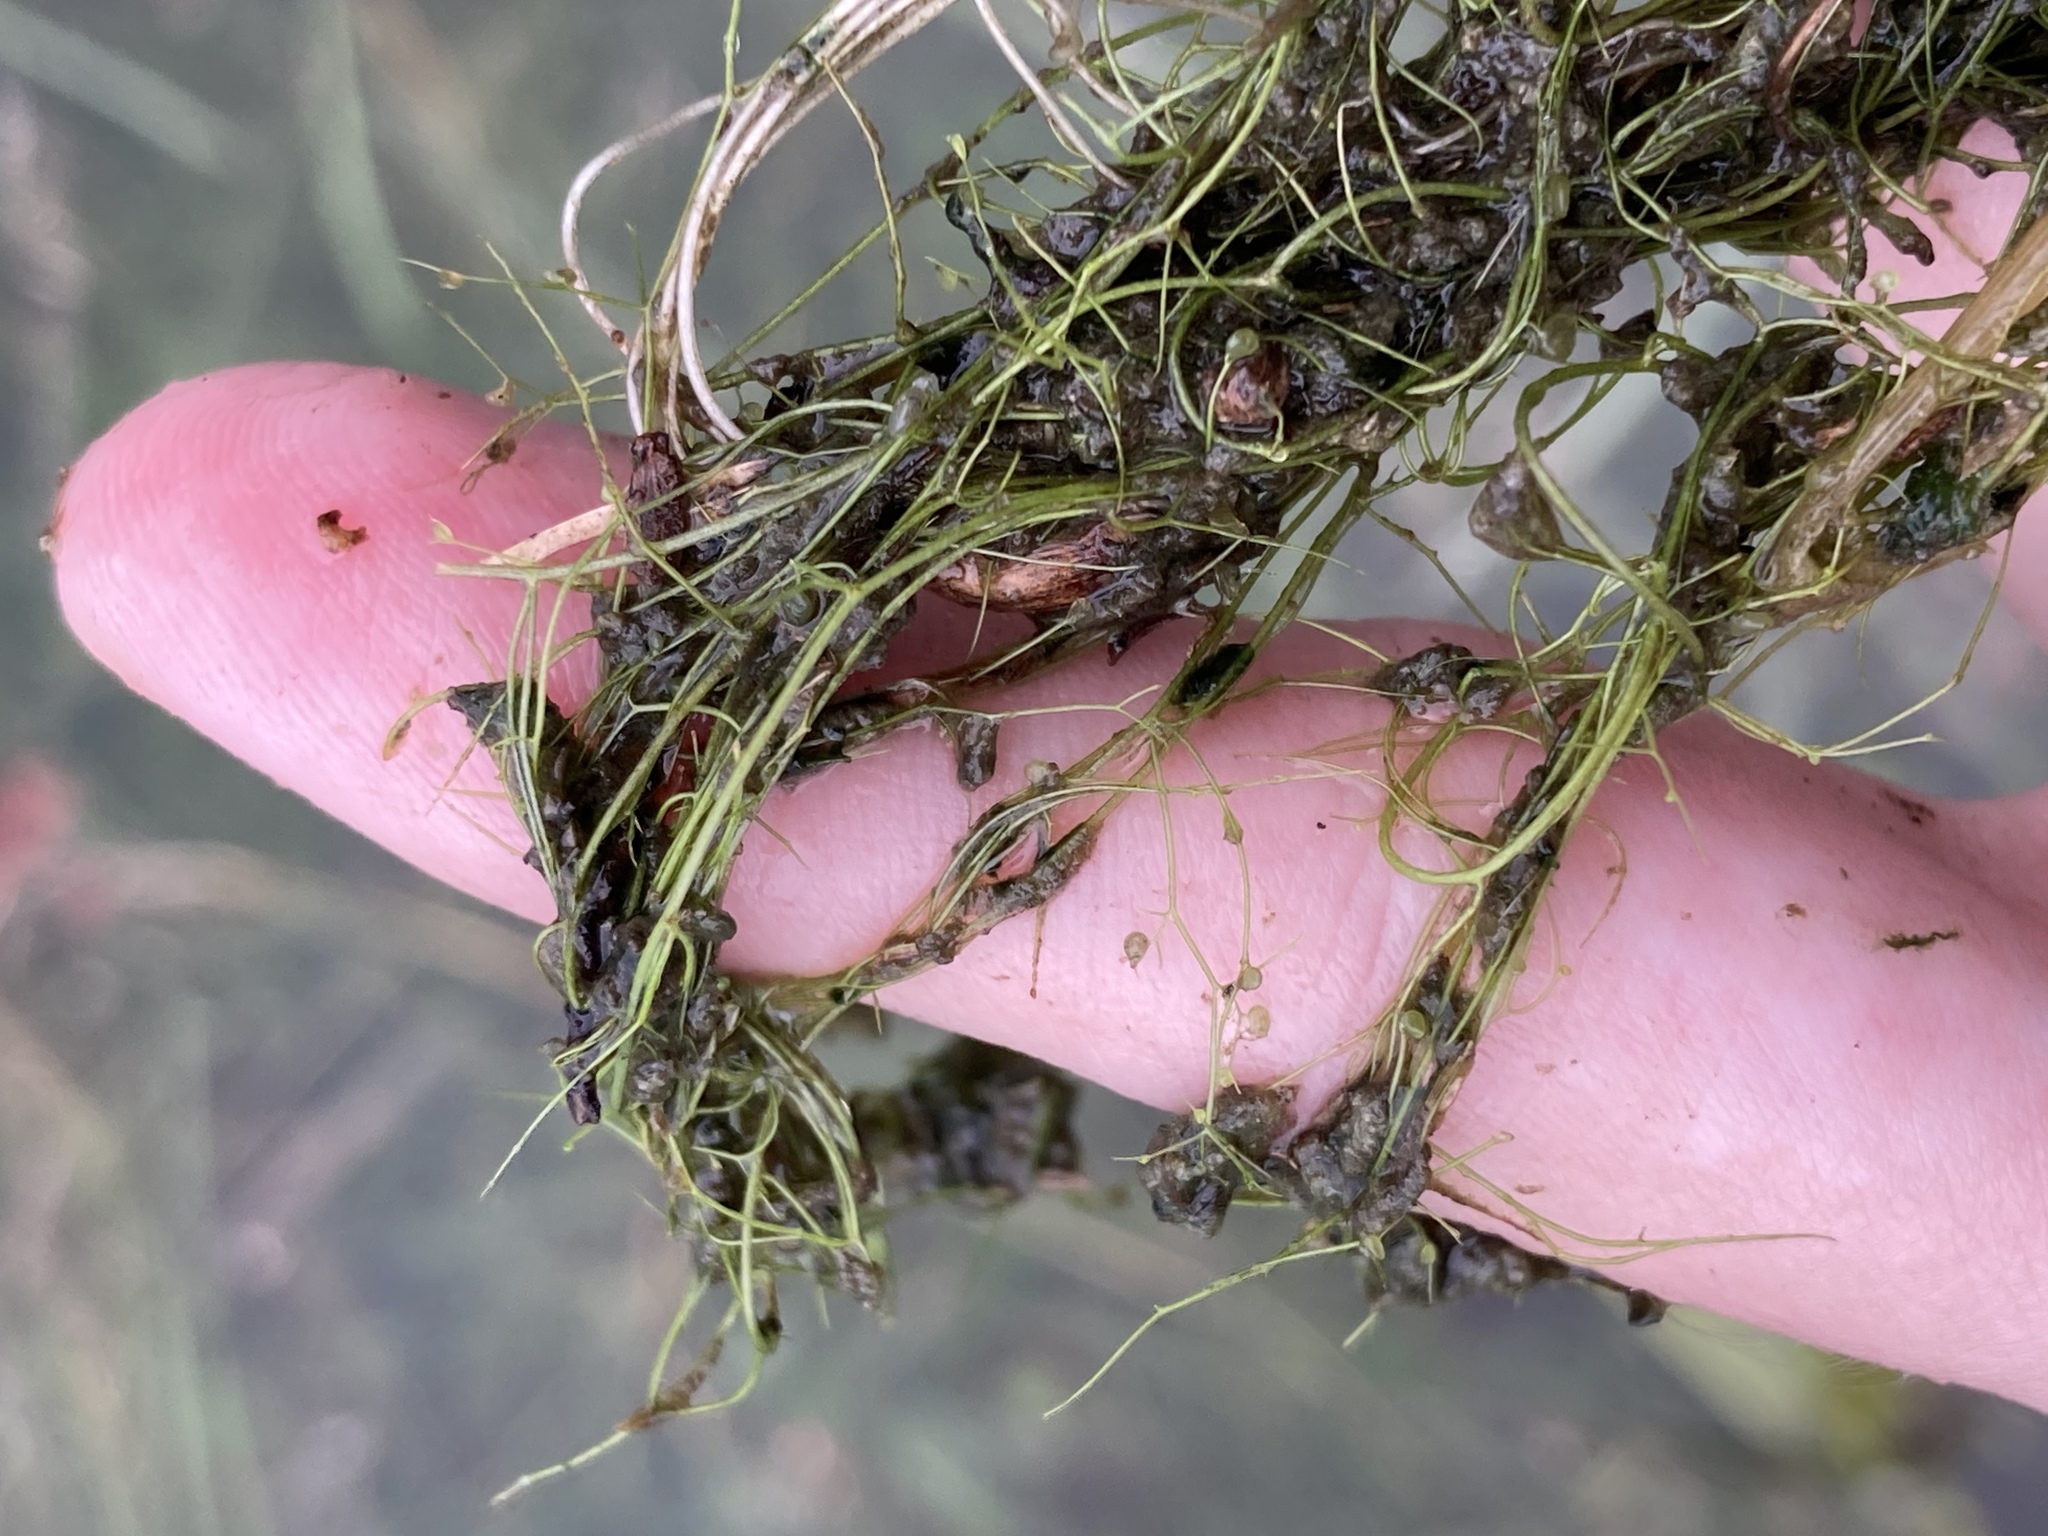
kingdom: Plantae
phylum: Tracheophyta
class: Magnoliopsida
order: Lamiales
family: Lentibulariaceae
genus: Utricularia
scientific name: Utricularia gibba
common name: Humped bladderwort
